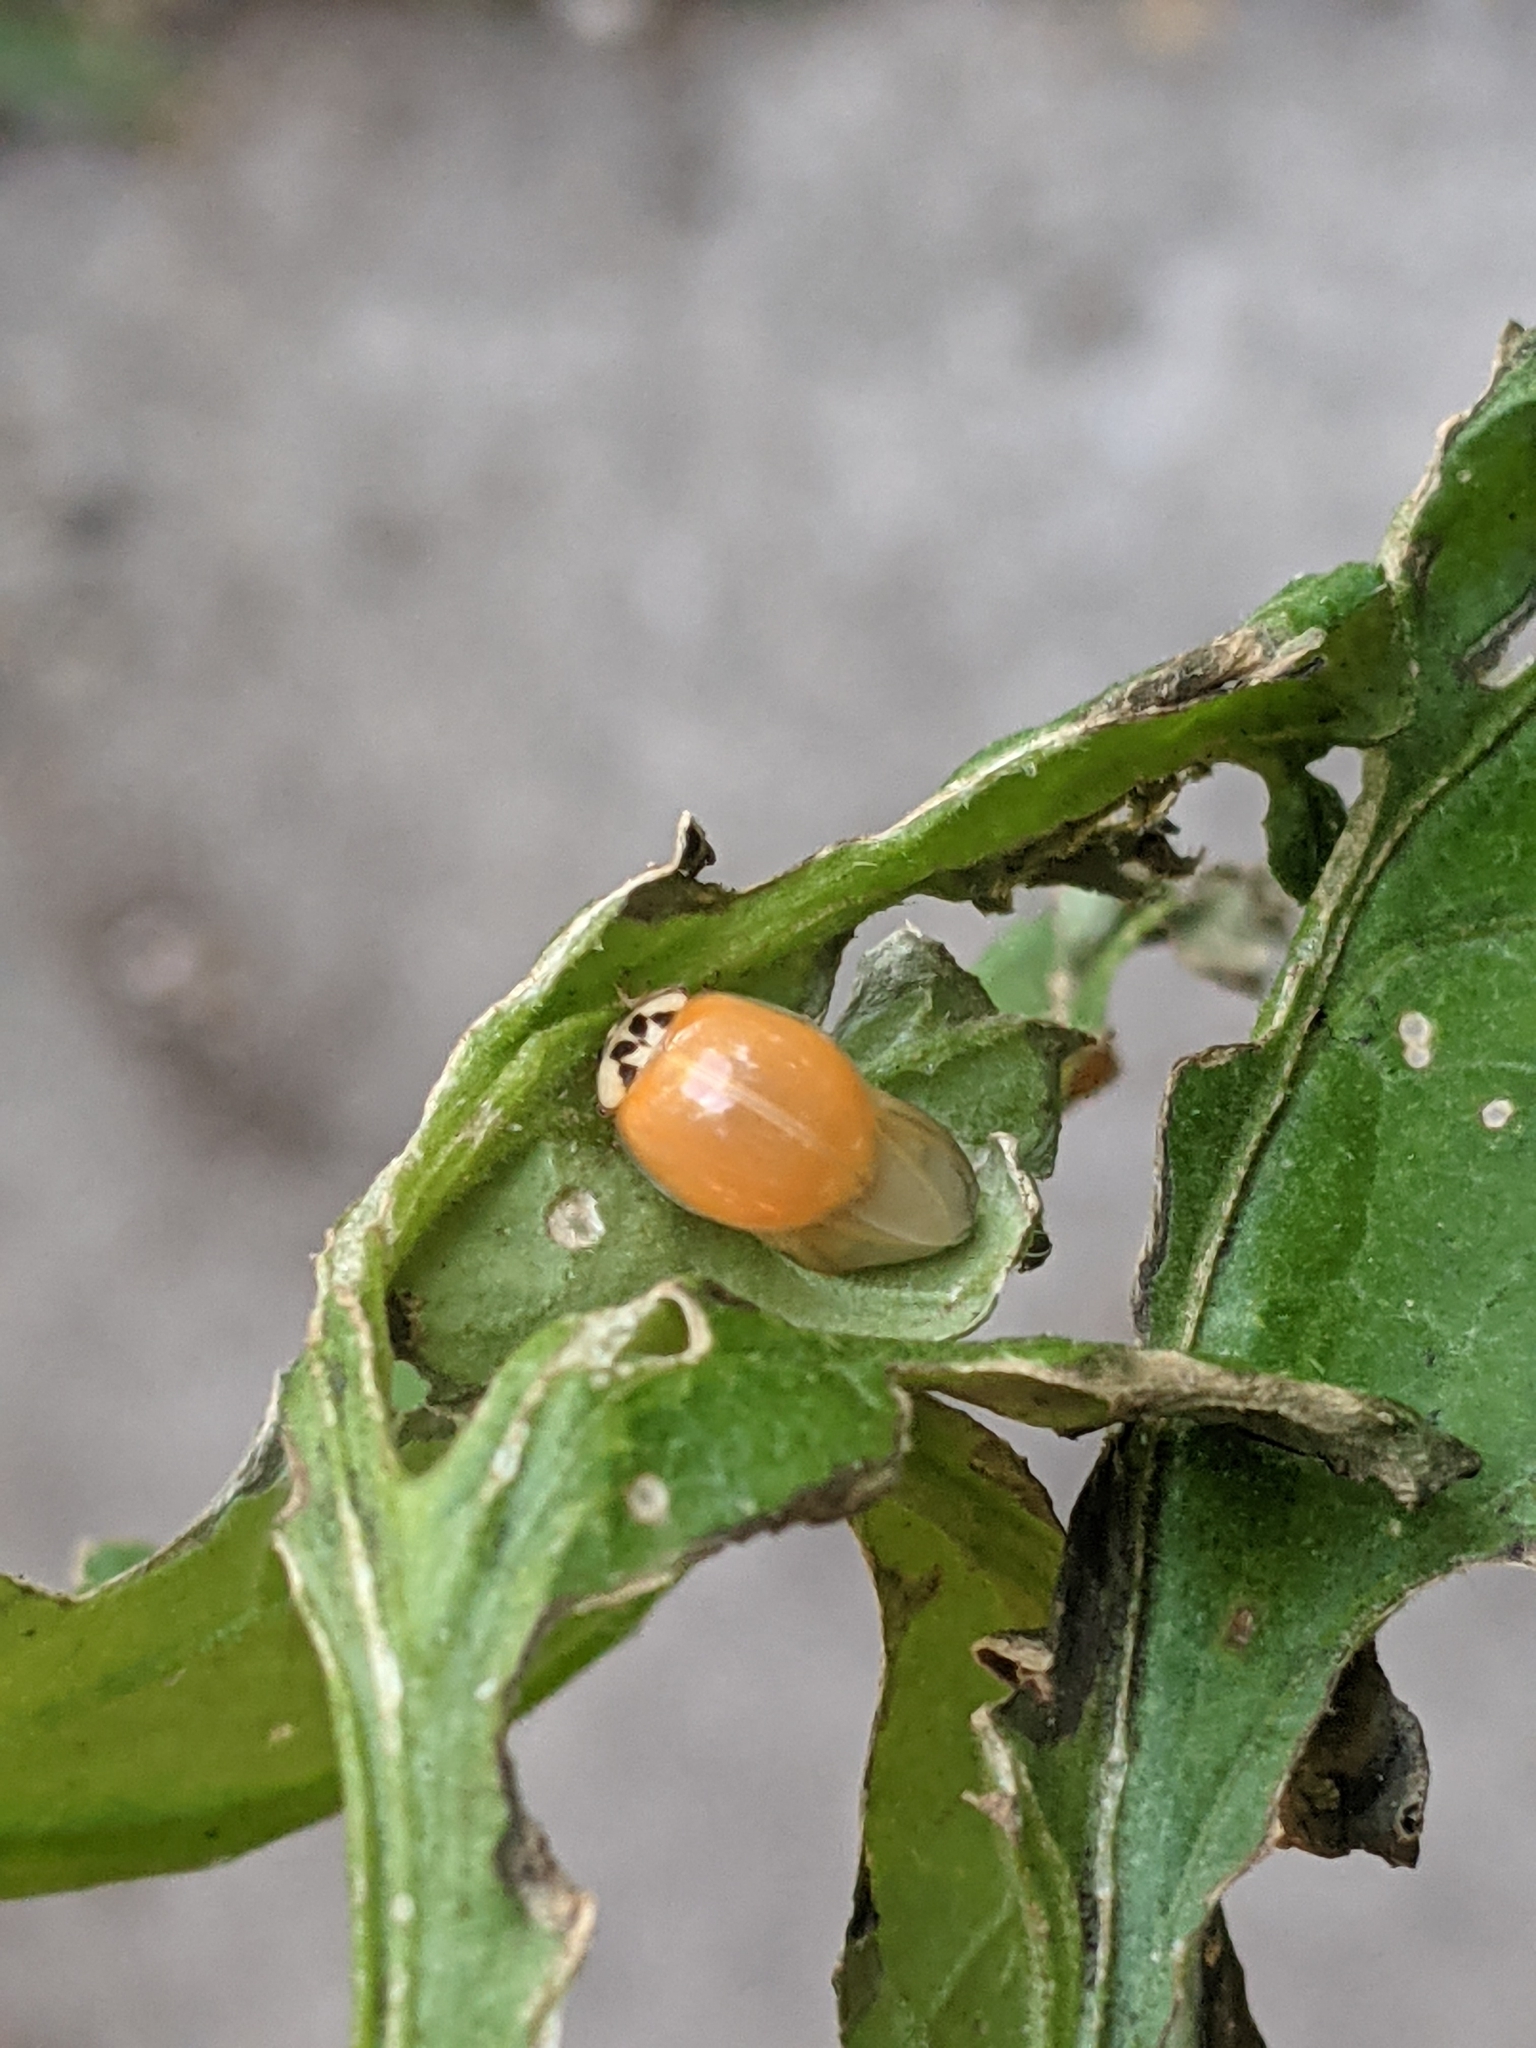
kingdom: Animalia
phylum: Arthropoda
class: Insecta
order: Coleoptera
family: Coccinellidae
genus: Harmonia
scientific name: Harmonia axyridis
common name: Harlequin ladybird
